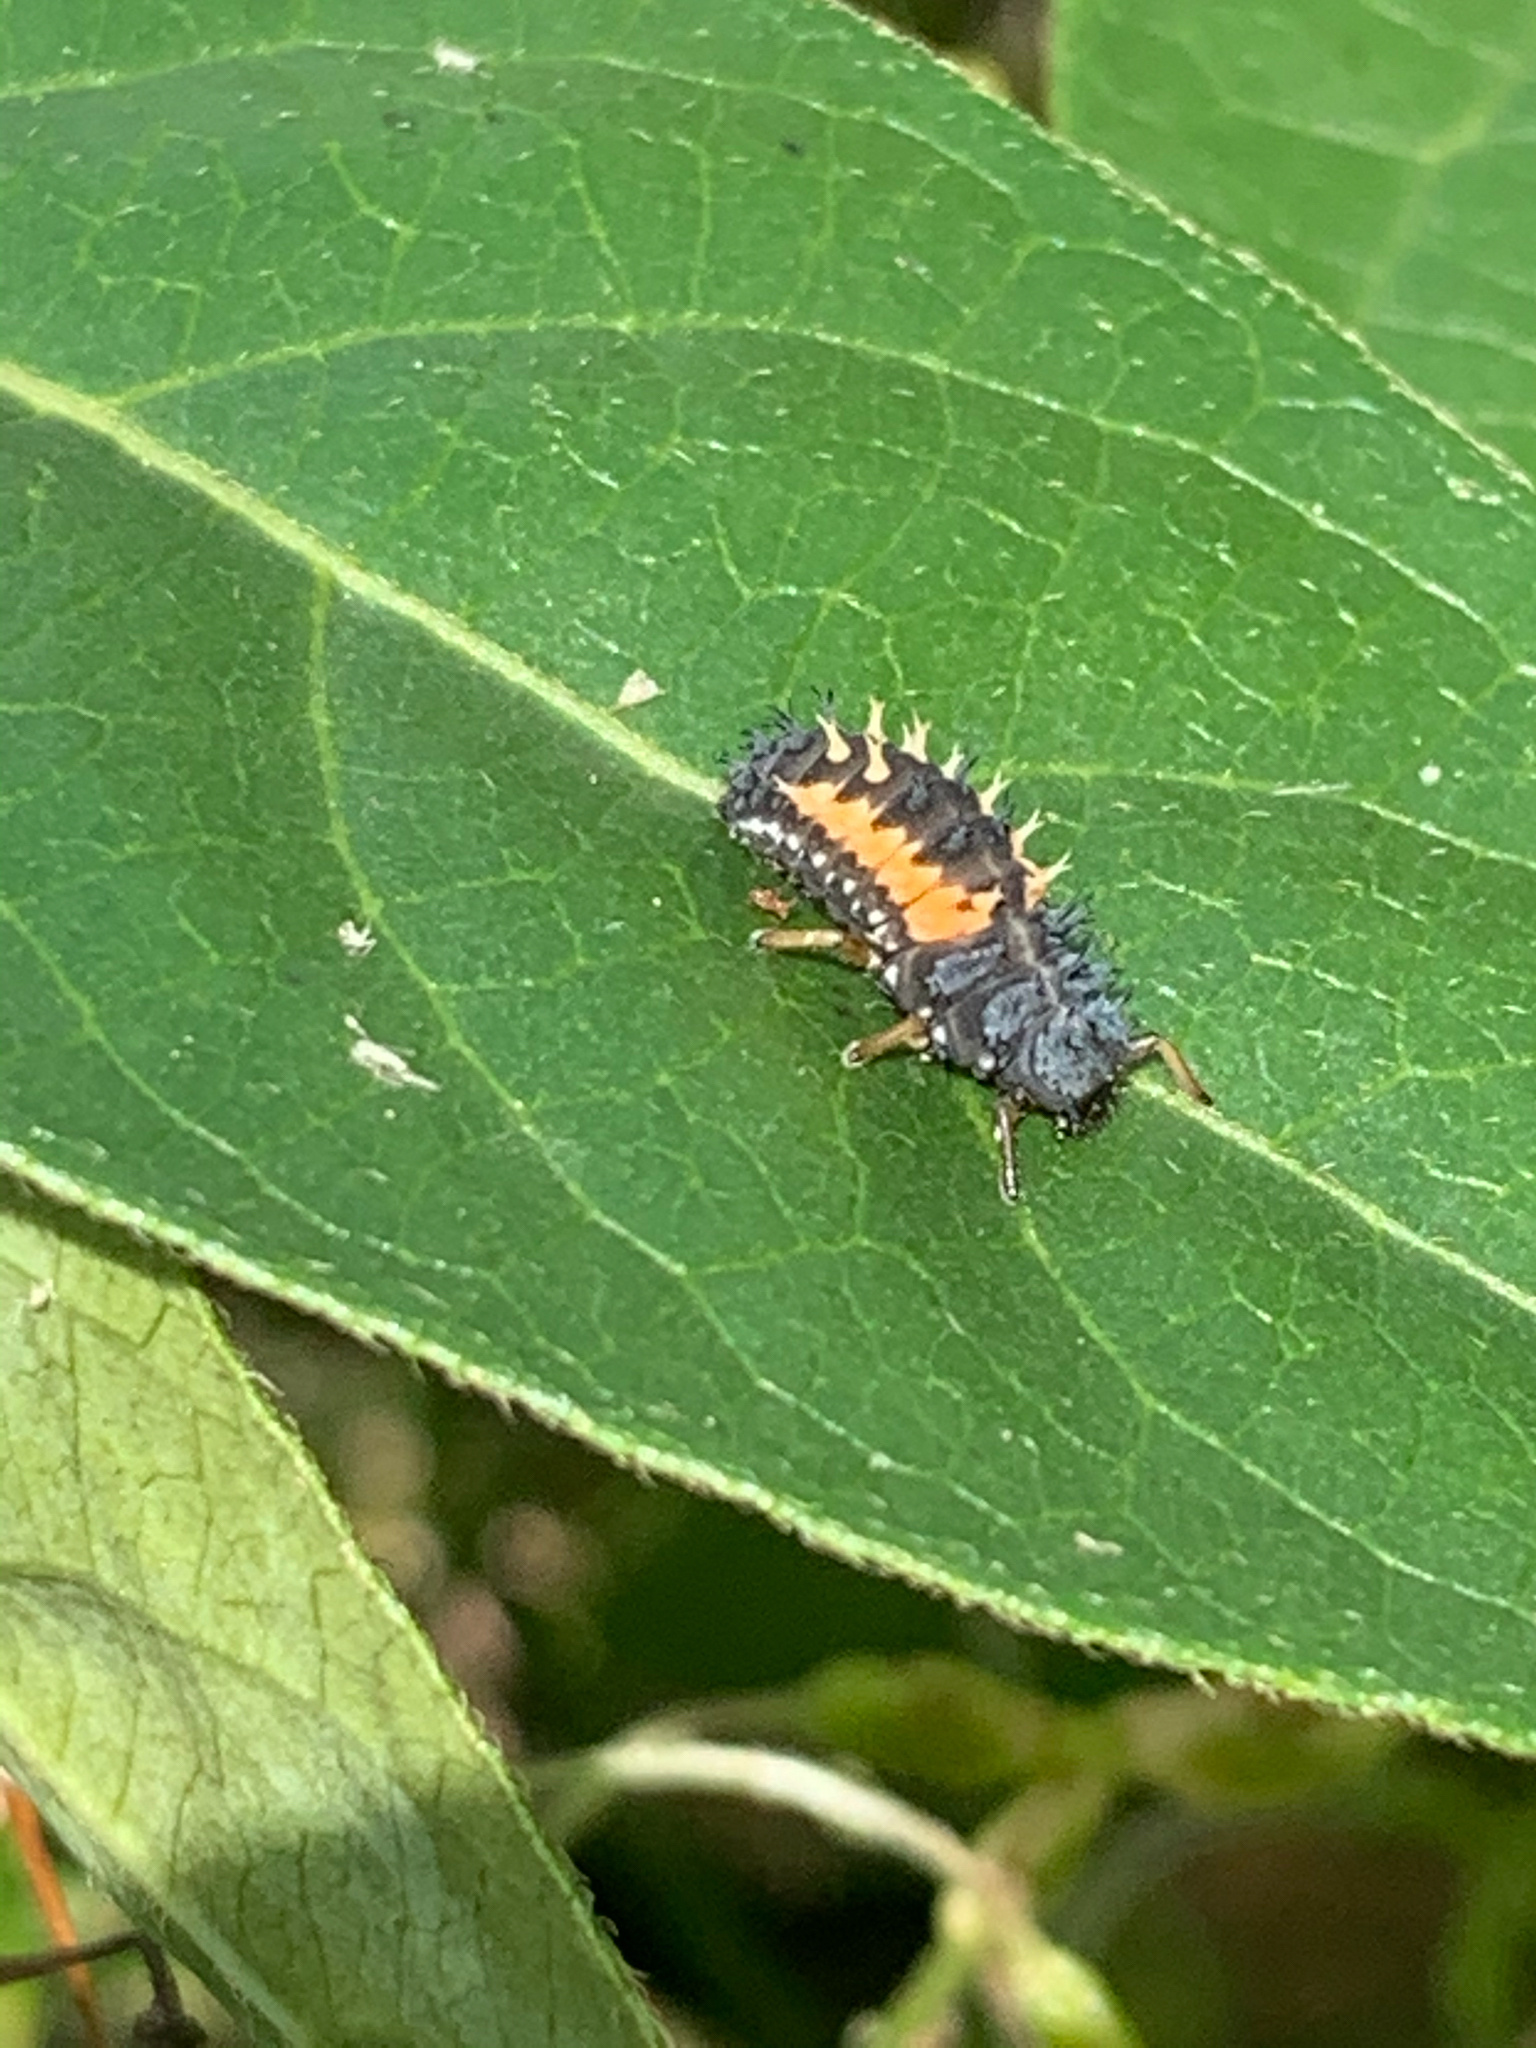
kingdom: Animalia
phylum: Arthropoda
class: Insecta
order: Coleoptera
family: Coccinellidae
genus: Harmonia
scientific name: Harmonia axyridis
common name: Harlequin ladybird
